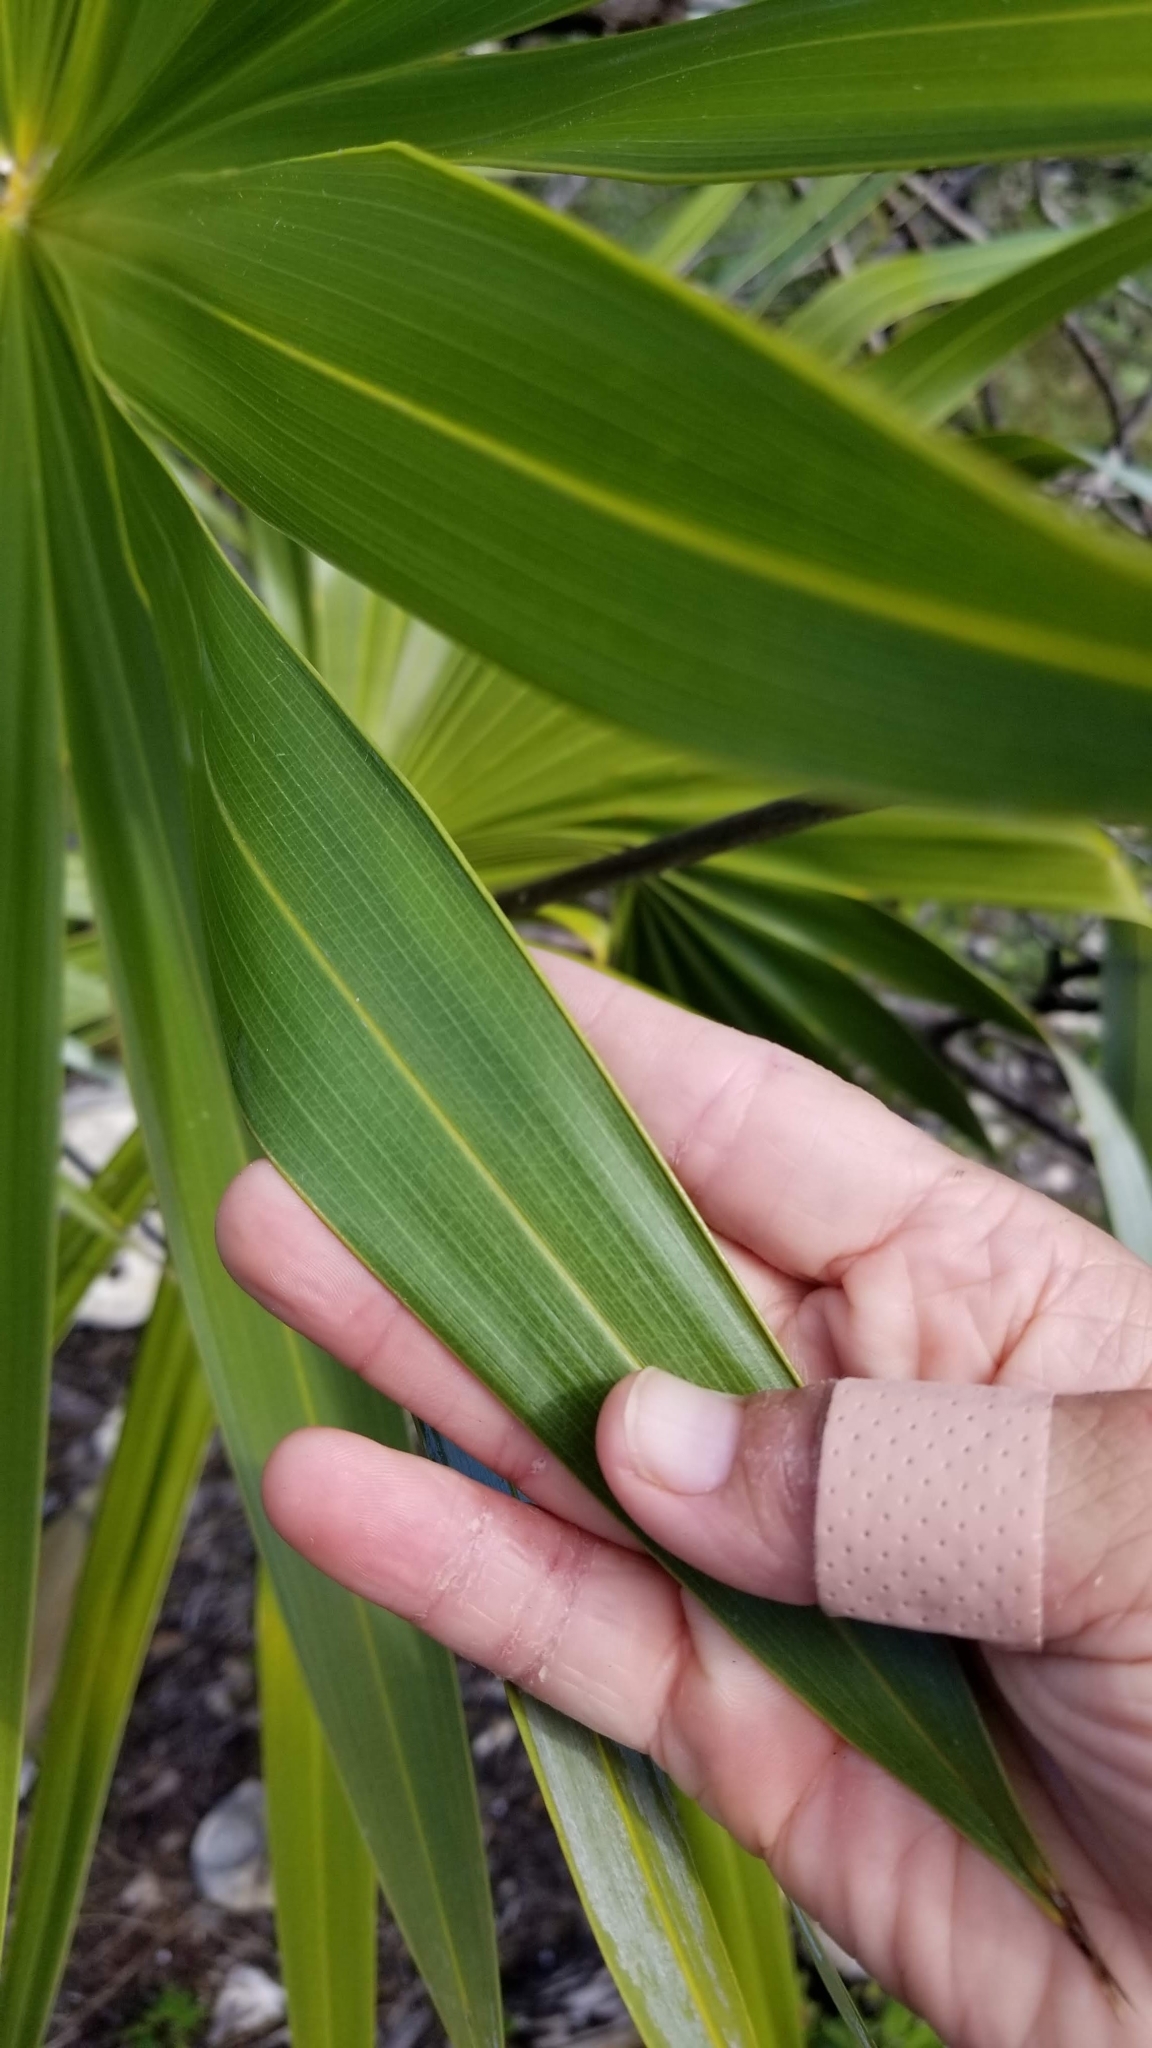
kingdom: Plantae
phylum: Tracheophyta
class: Liliopsida
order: Arecales
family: Arecaceae
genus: Thrinax
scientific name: Thrinax radiata
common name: Florida thatch
